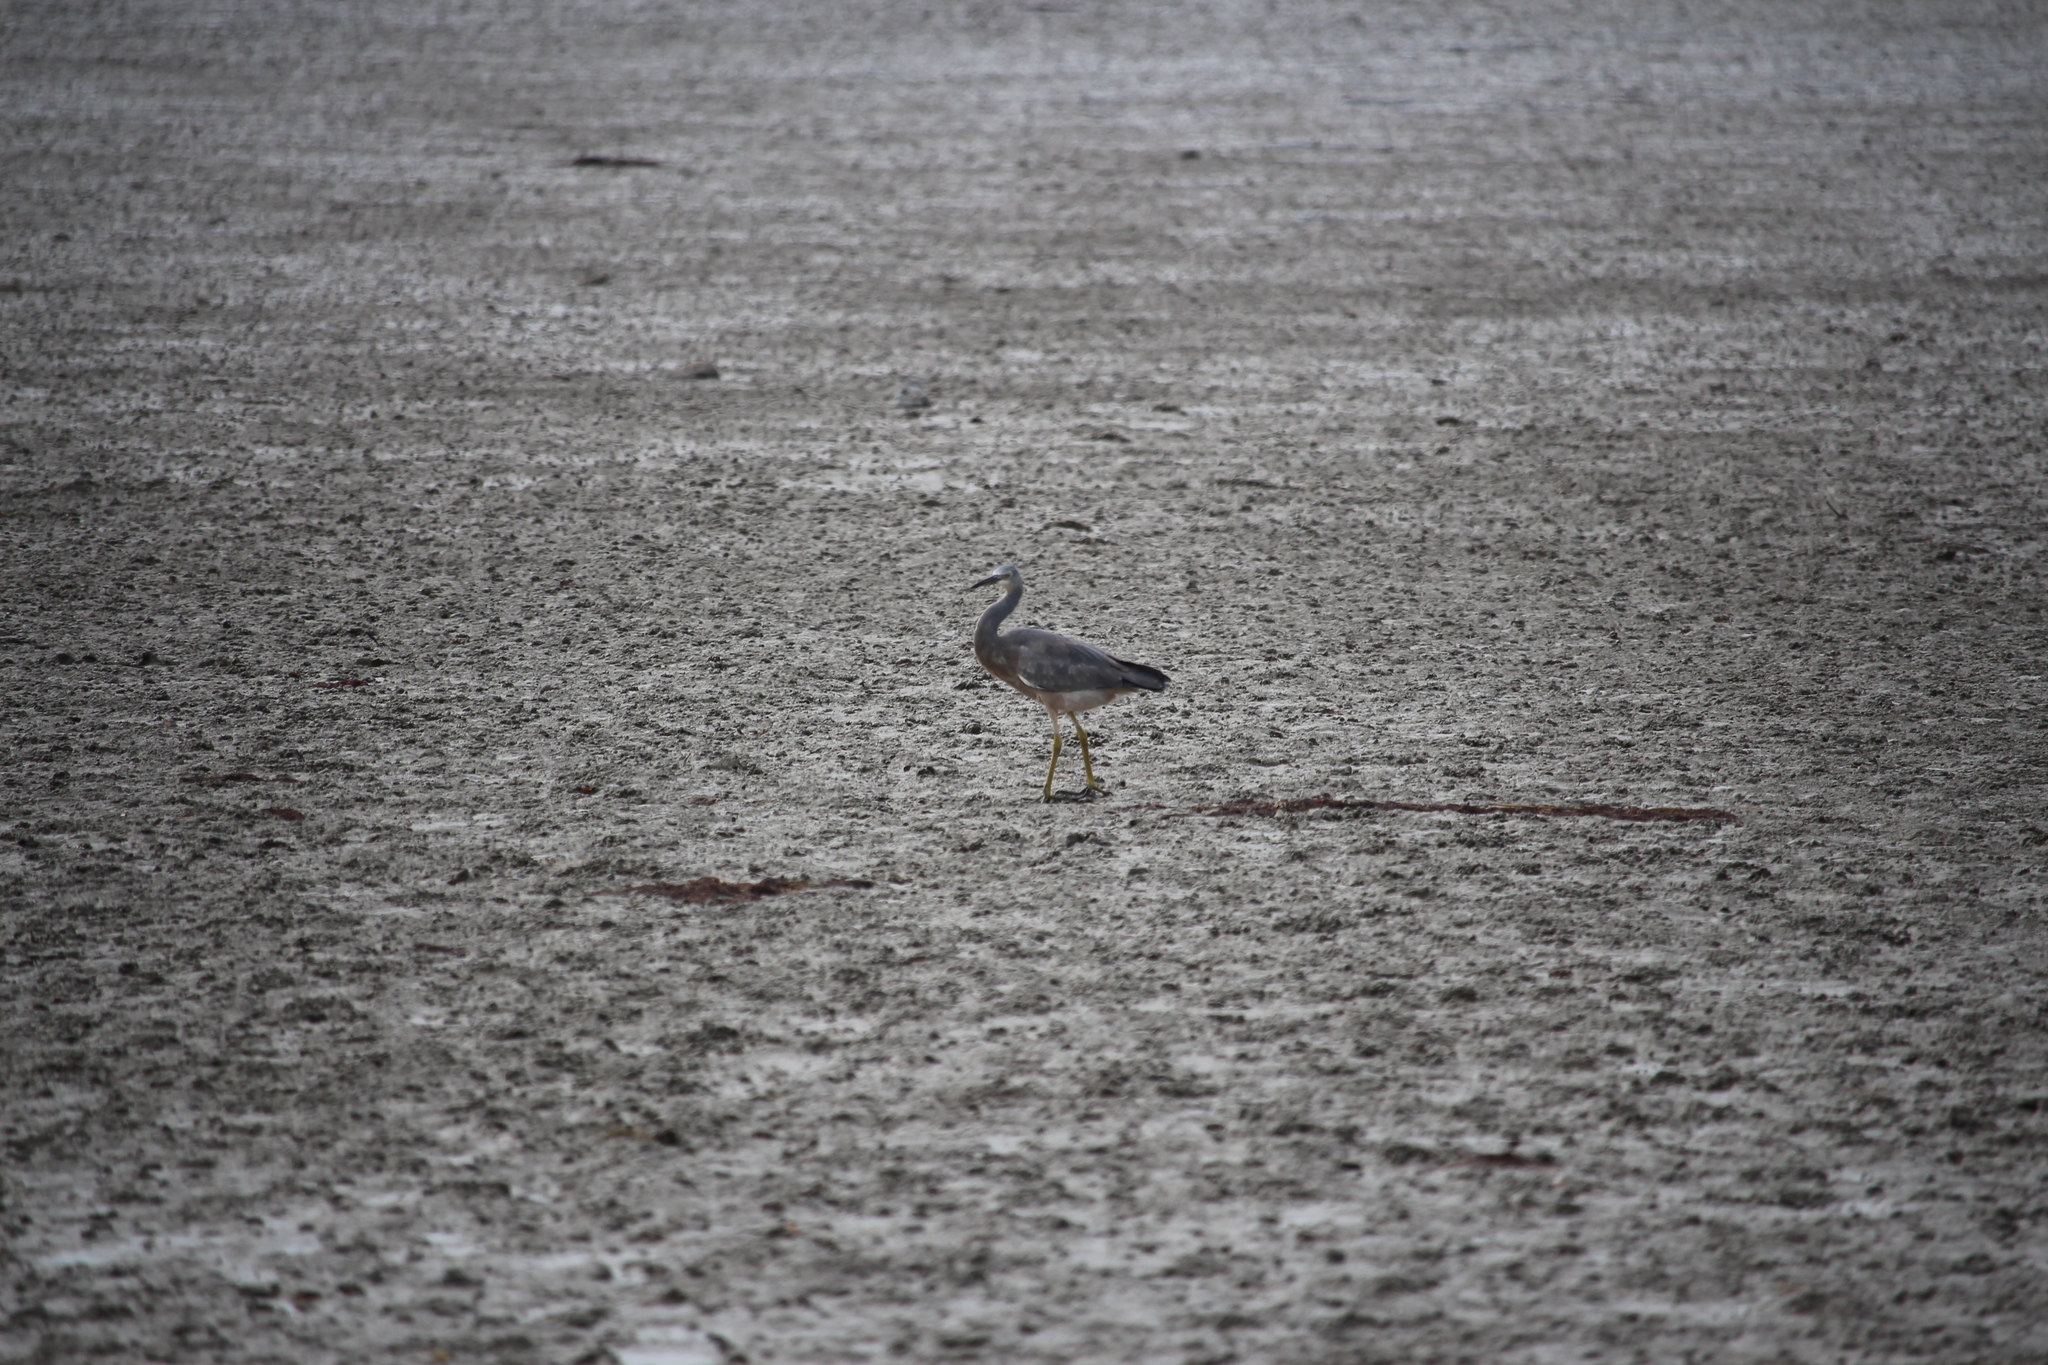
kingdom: Animalia
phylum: Chordata
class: Aves
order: Pelecaniformes
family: Ardeidae
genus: Egretta
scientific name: Egretta novaehollandiae
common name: White-faced heron
